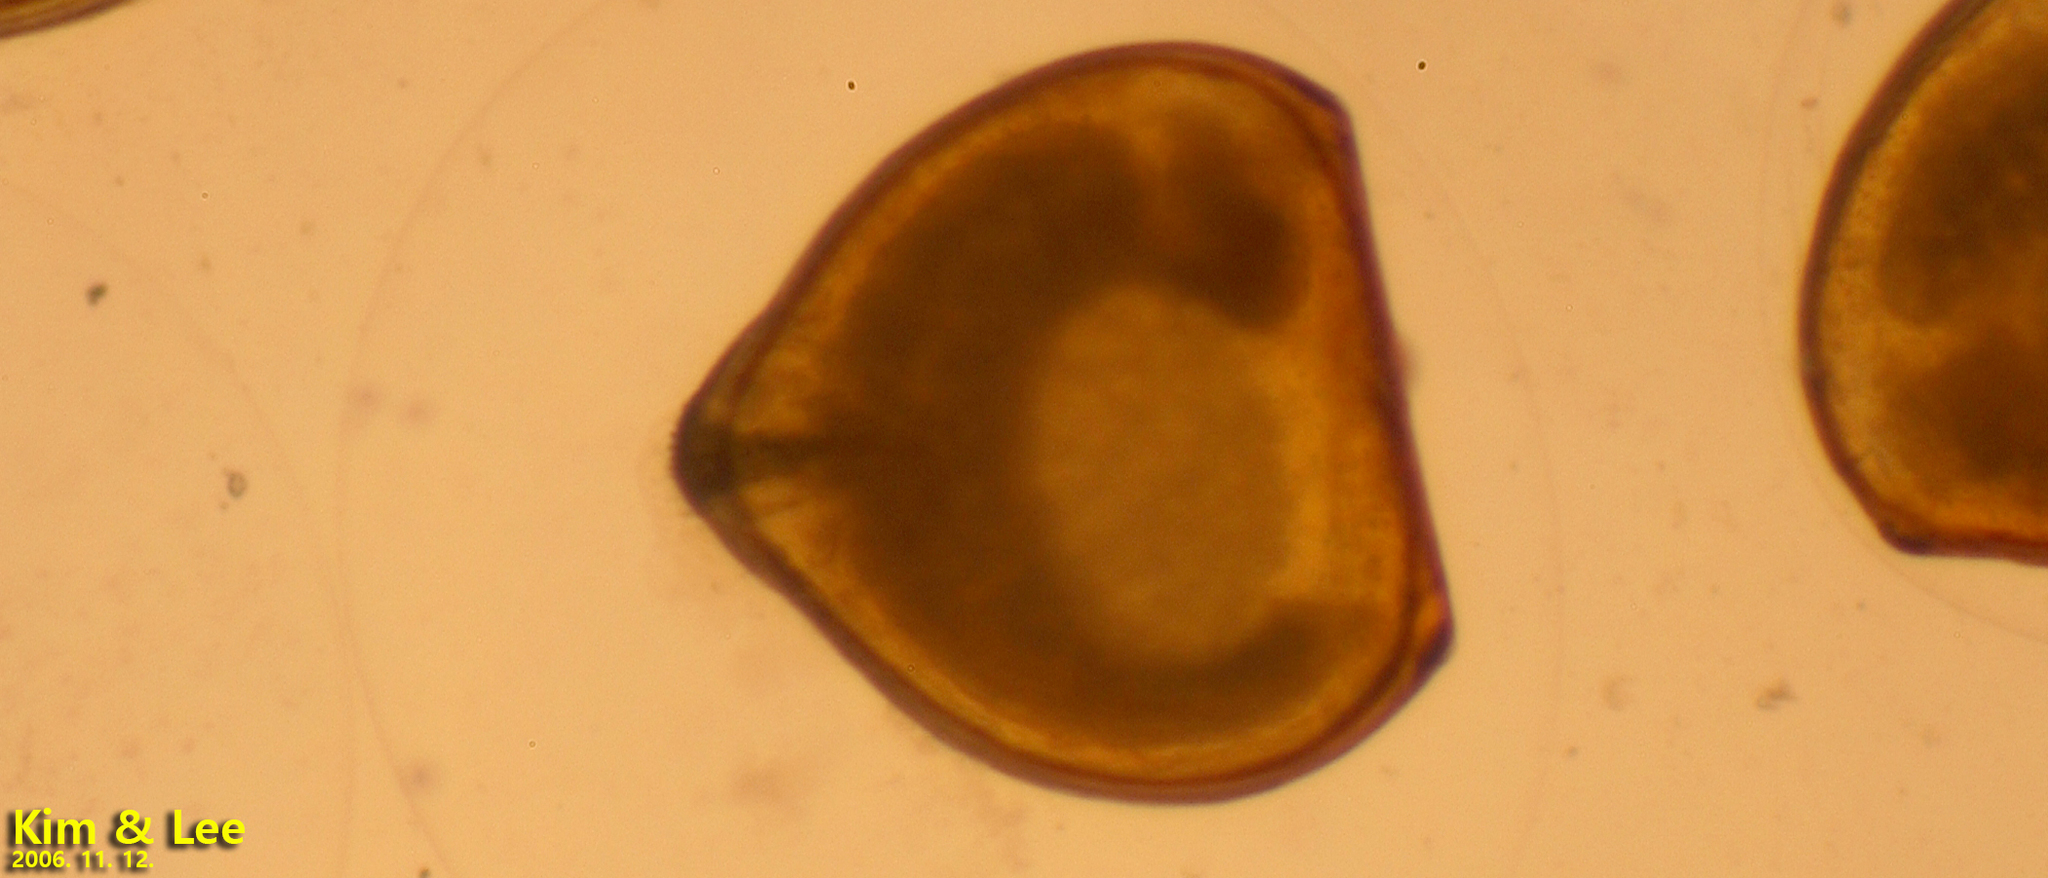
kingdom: Animalia
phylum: Mollusca
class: Bivalvia
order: Unionida
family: Unionidae
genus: Buldowskia
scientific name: Buldowskia shadini
